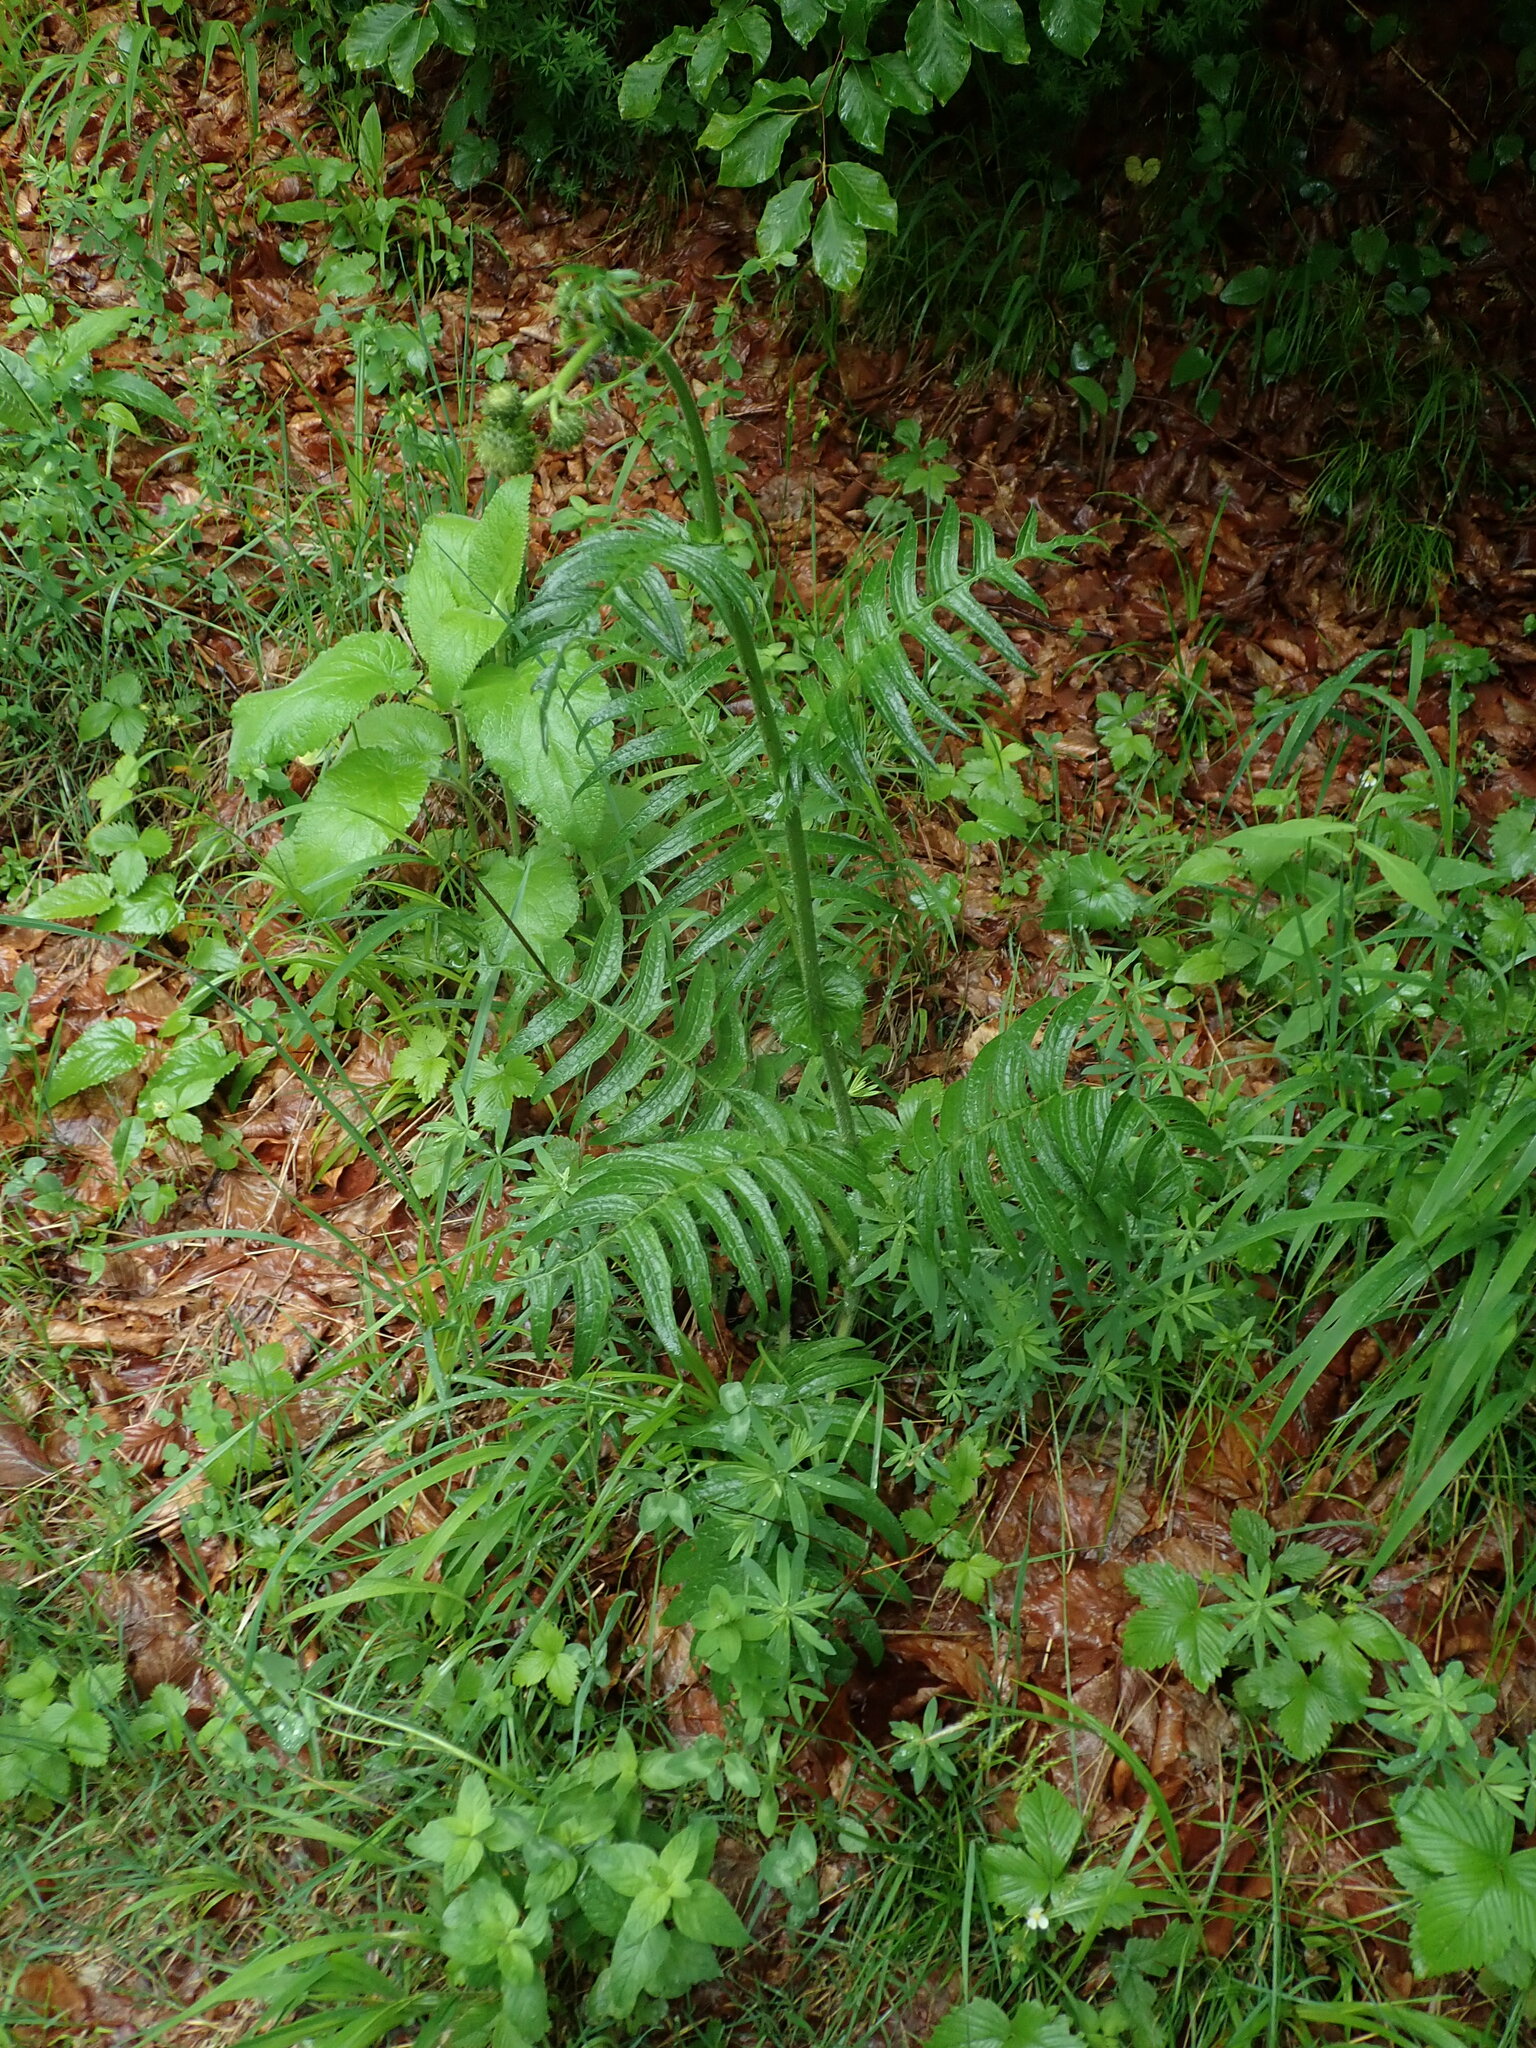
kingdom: Plantae
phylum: Tracheophyta
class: Magnoliopsida
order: Asterales
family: Asteraceae
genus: Cirsium
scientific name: Cirsium erisithales
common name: Yellow thistle
